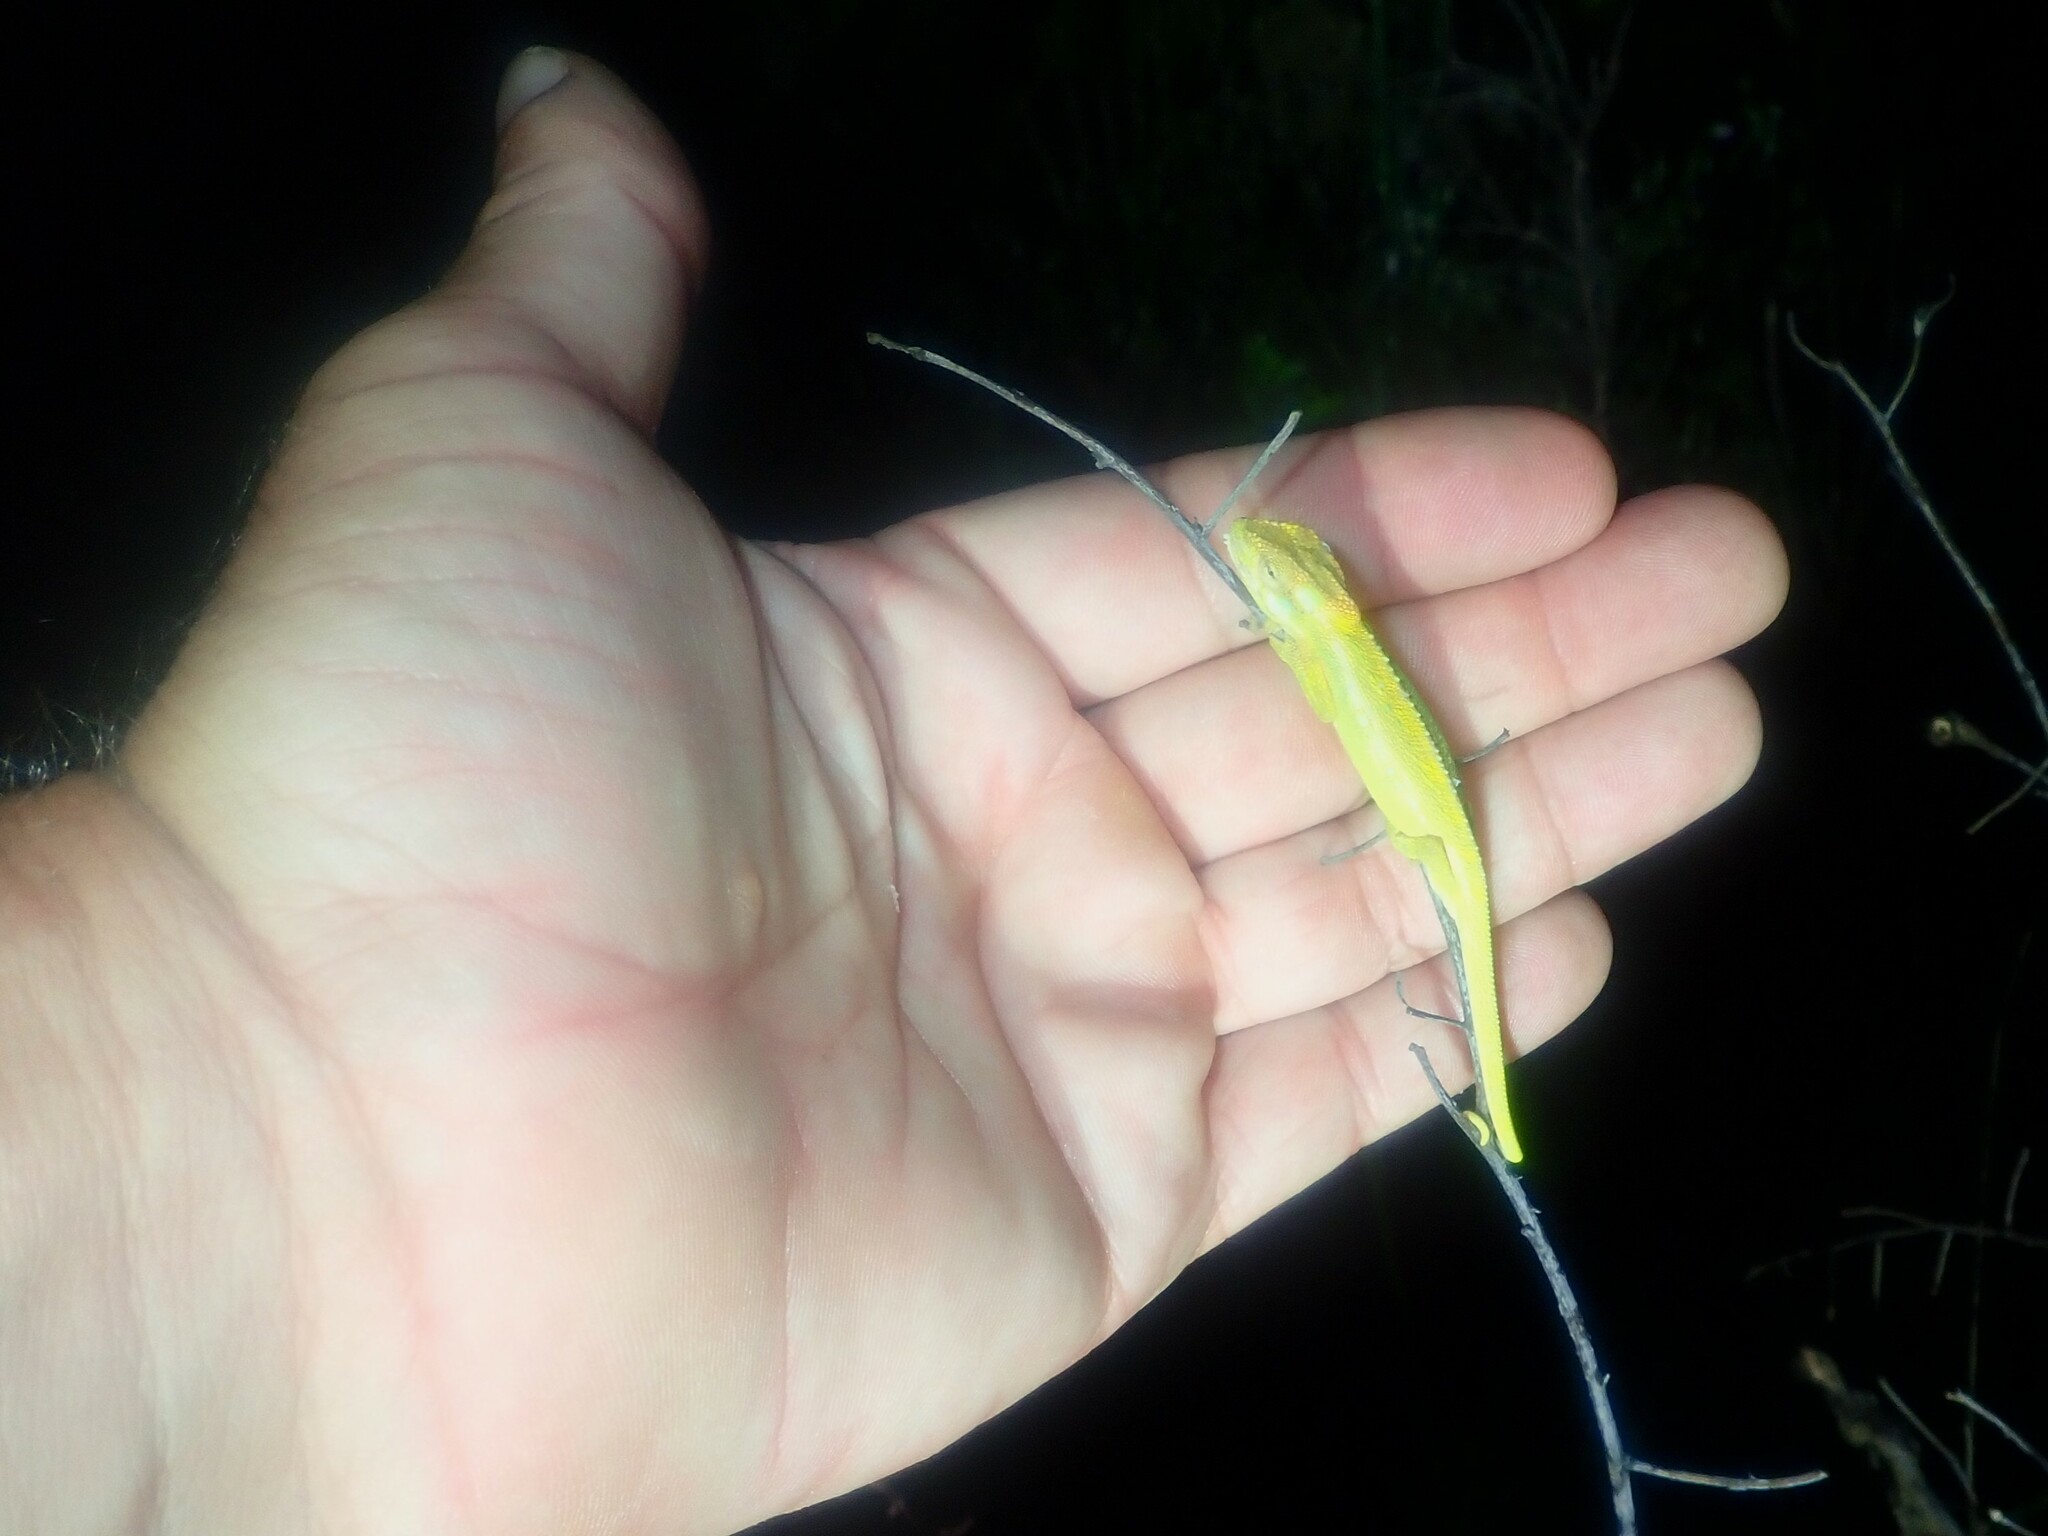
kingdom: Animalia
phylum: Chordata
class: Squamata
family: Chamaeleonidae
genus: Bradypodion
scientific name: Bradypodion pumilum
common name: Cape dwarf chameleon
